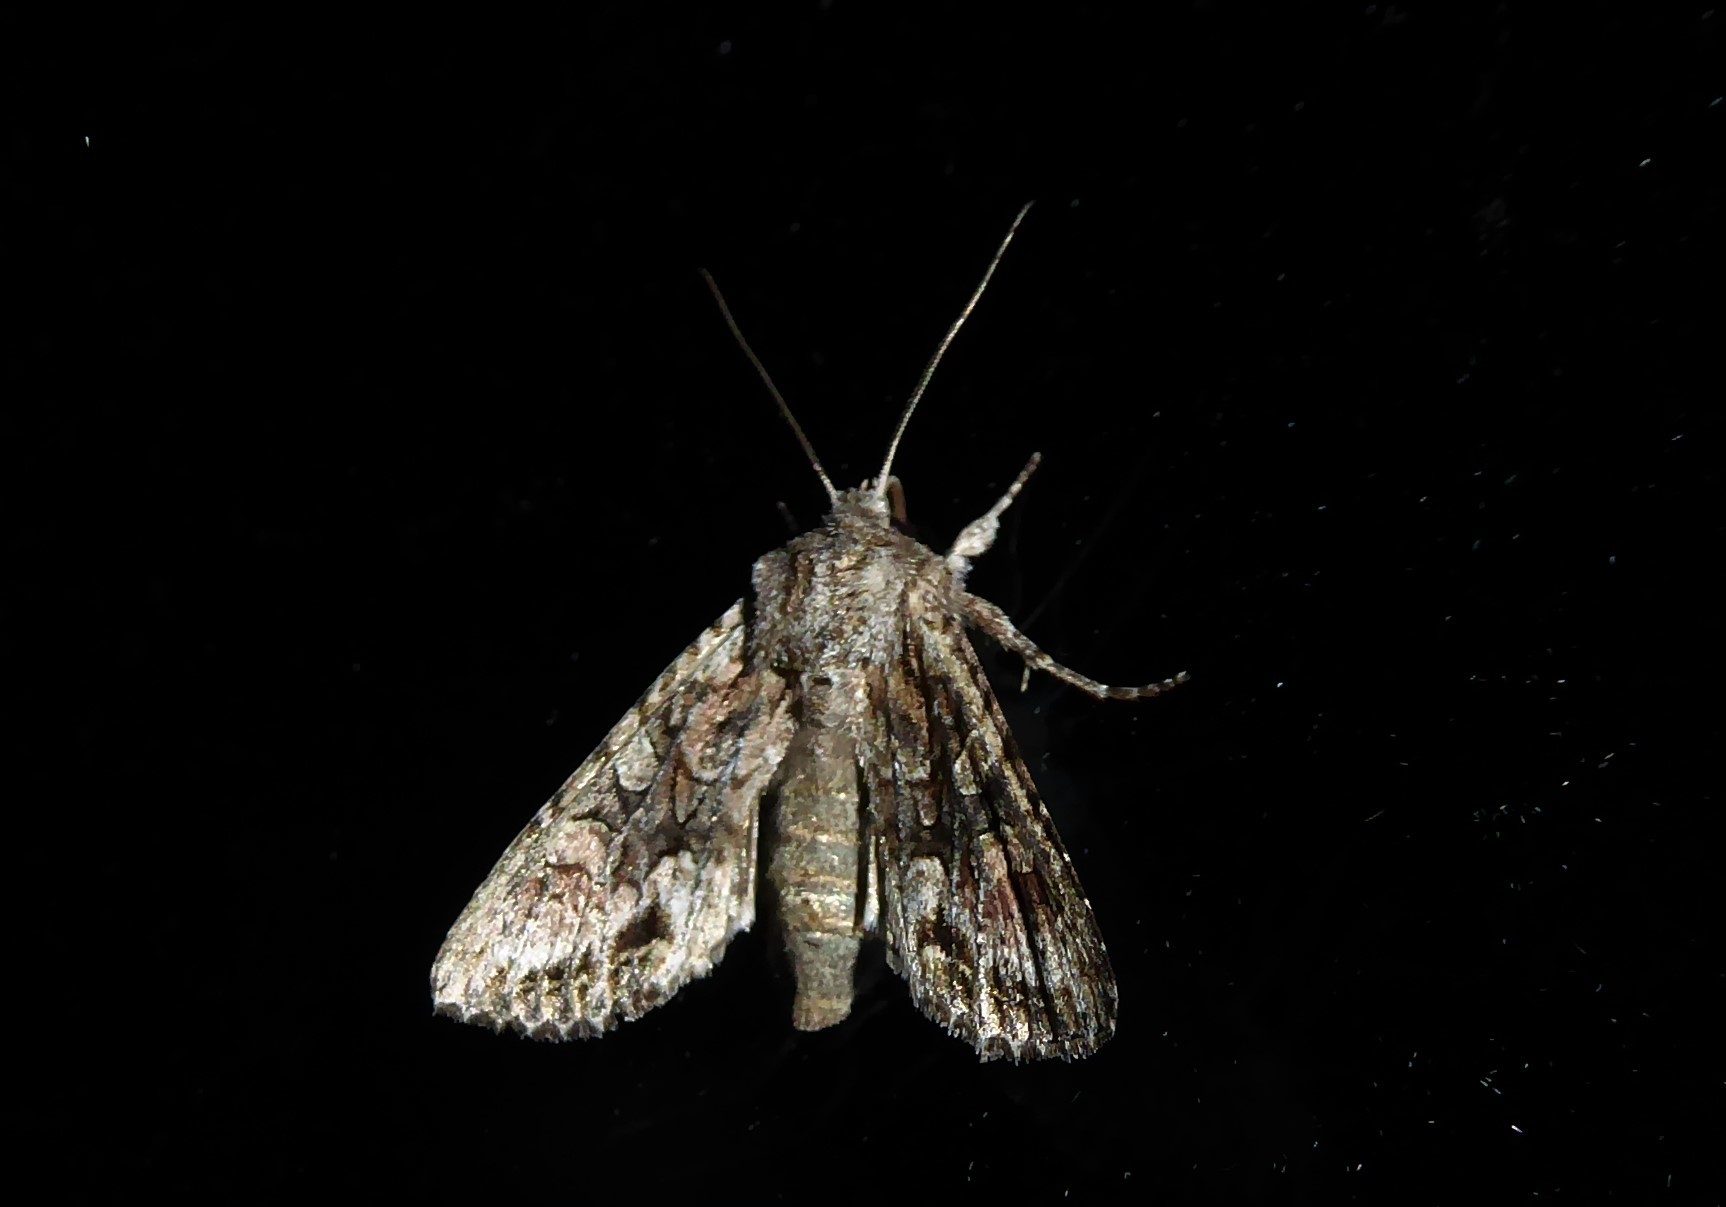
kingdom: Animalia
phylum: Arthropoda
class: Insecta
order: Lepidoptera
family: Noctuidae
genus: Ichneutica
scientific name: Ichneutica mutans
